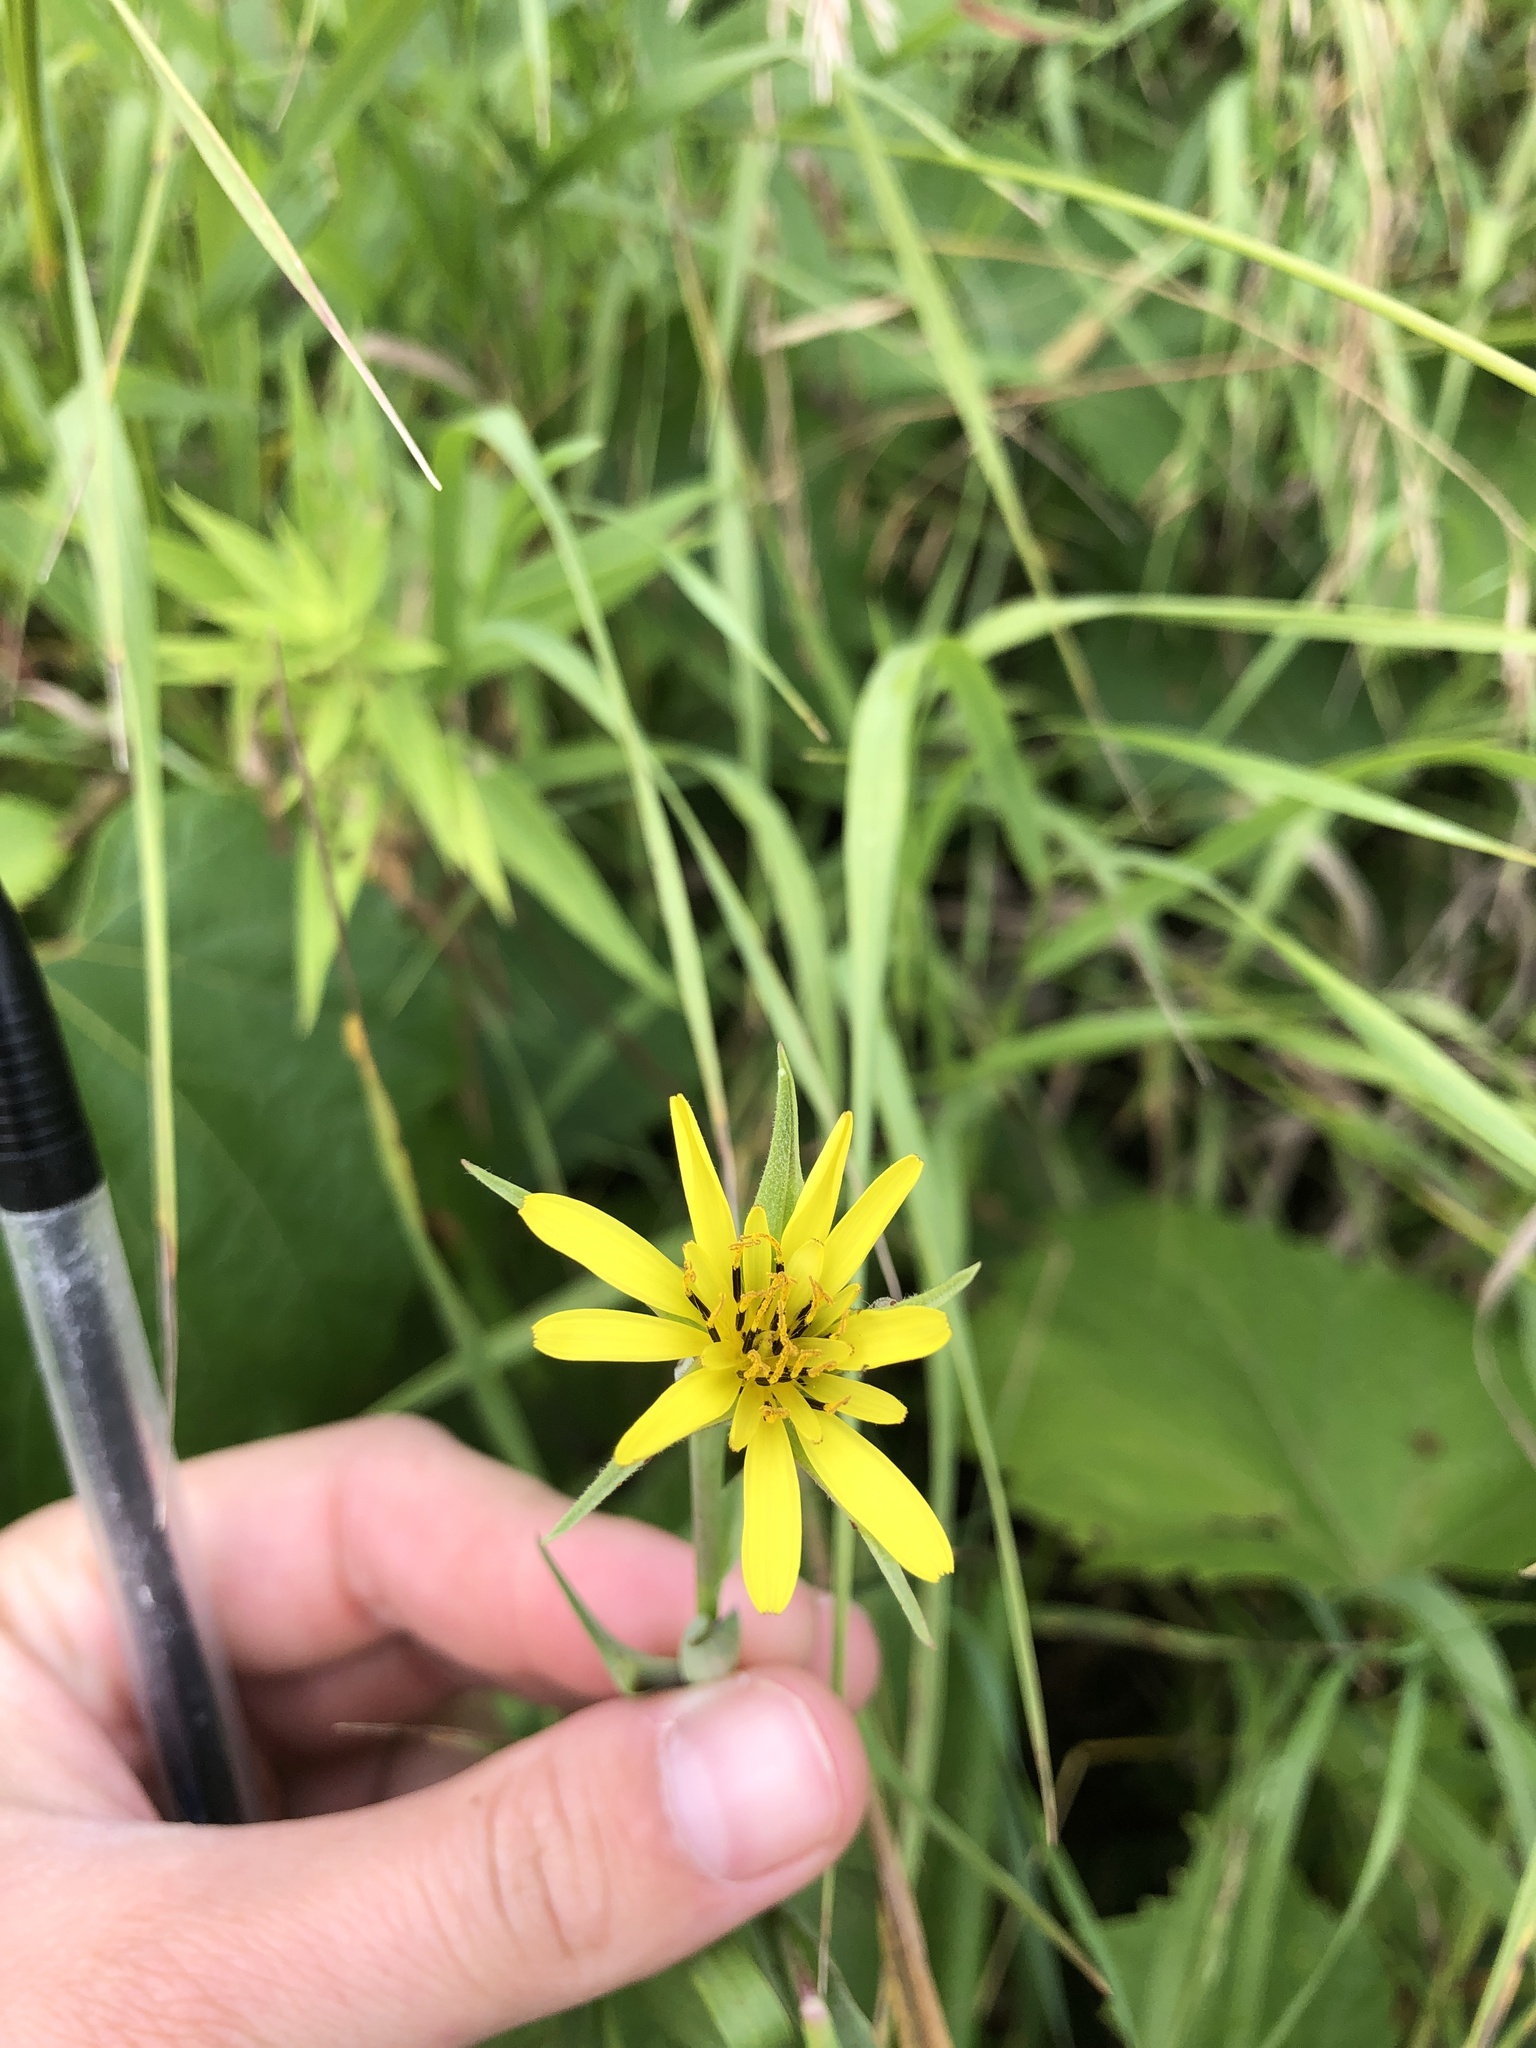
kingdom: Plantae
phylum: Tracheophyta
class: Magnoliopsida
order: Asterales
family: Asteraceae
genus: Tragopogon
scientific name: Tragopogon dubius
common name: Yellow salsify
